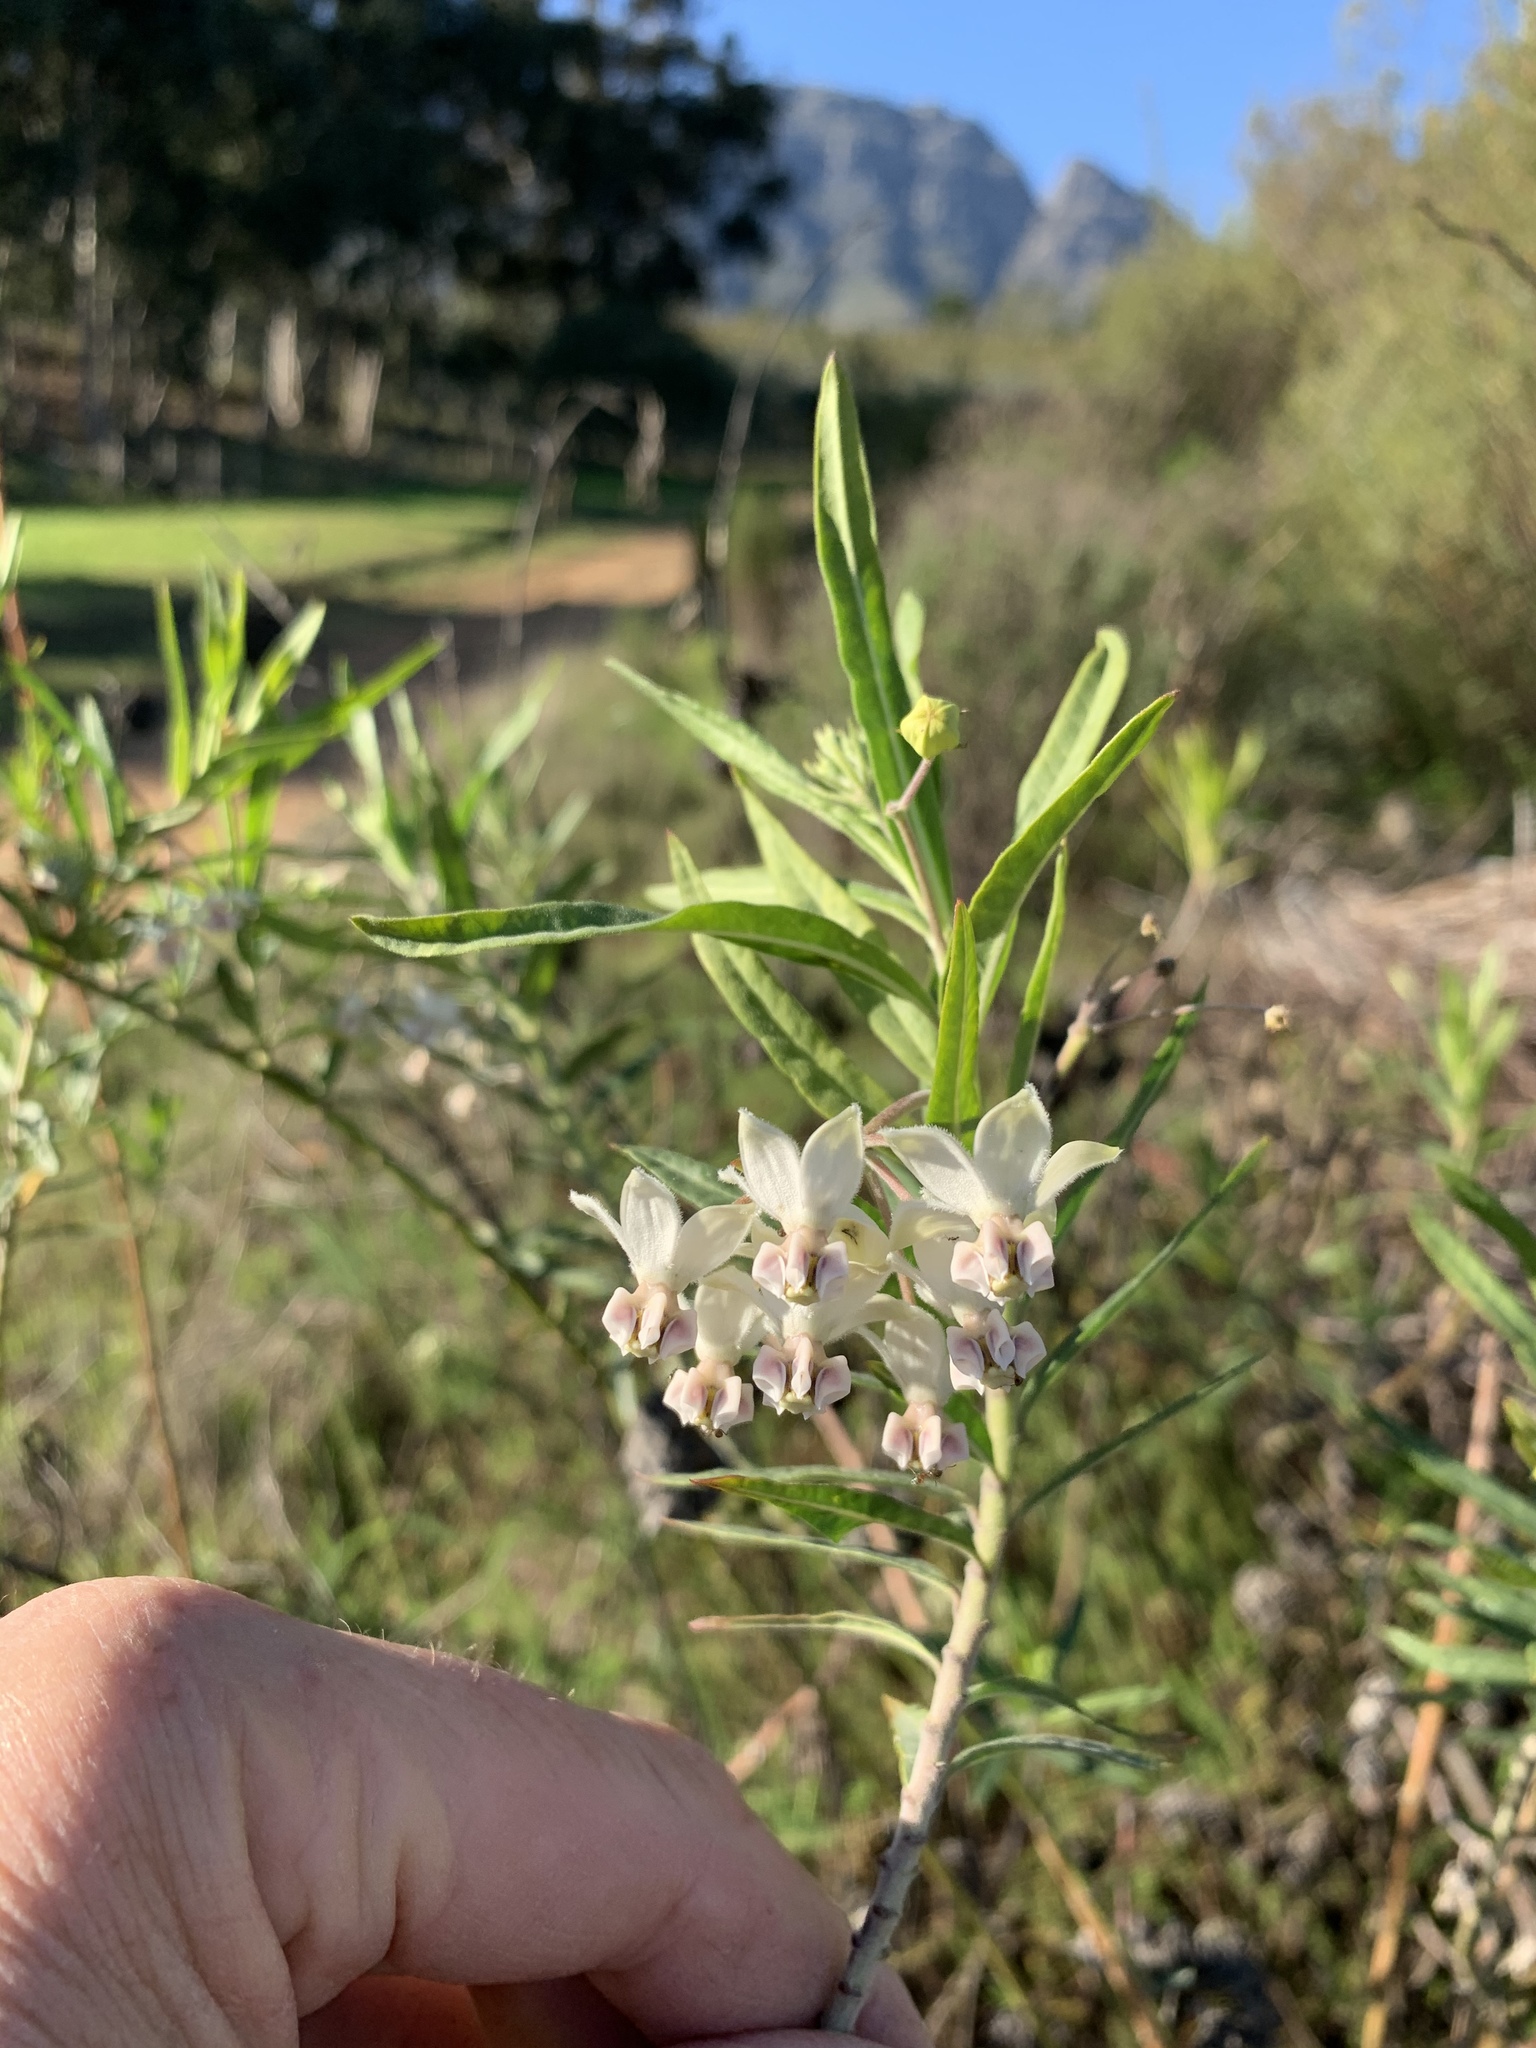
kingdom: Plantae
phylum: Tracheophyta
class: Magnoliopsida
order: Gentianales
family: Apocynaceae
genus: Gomphocarpus
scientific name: Gomphocarpus physocarpus
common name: Balloon cotton bush
